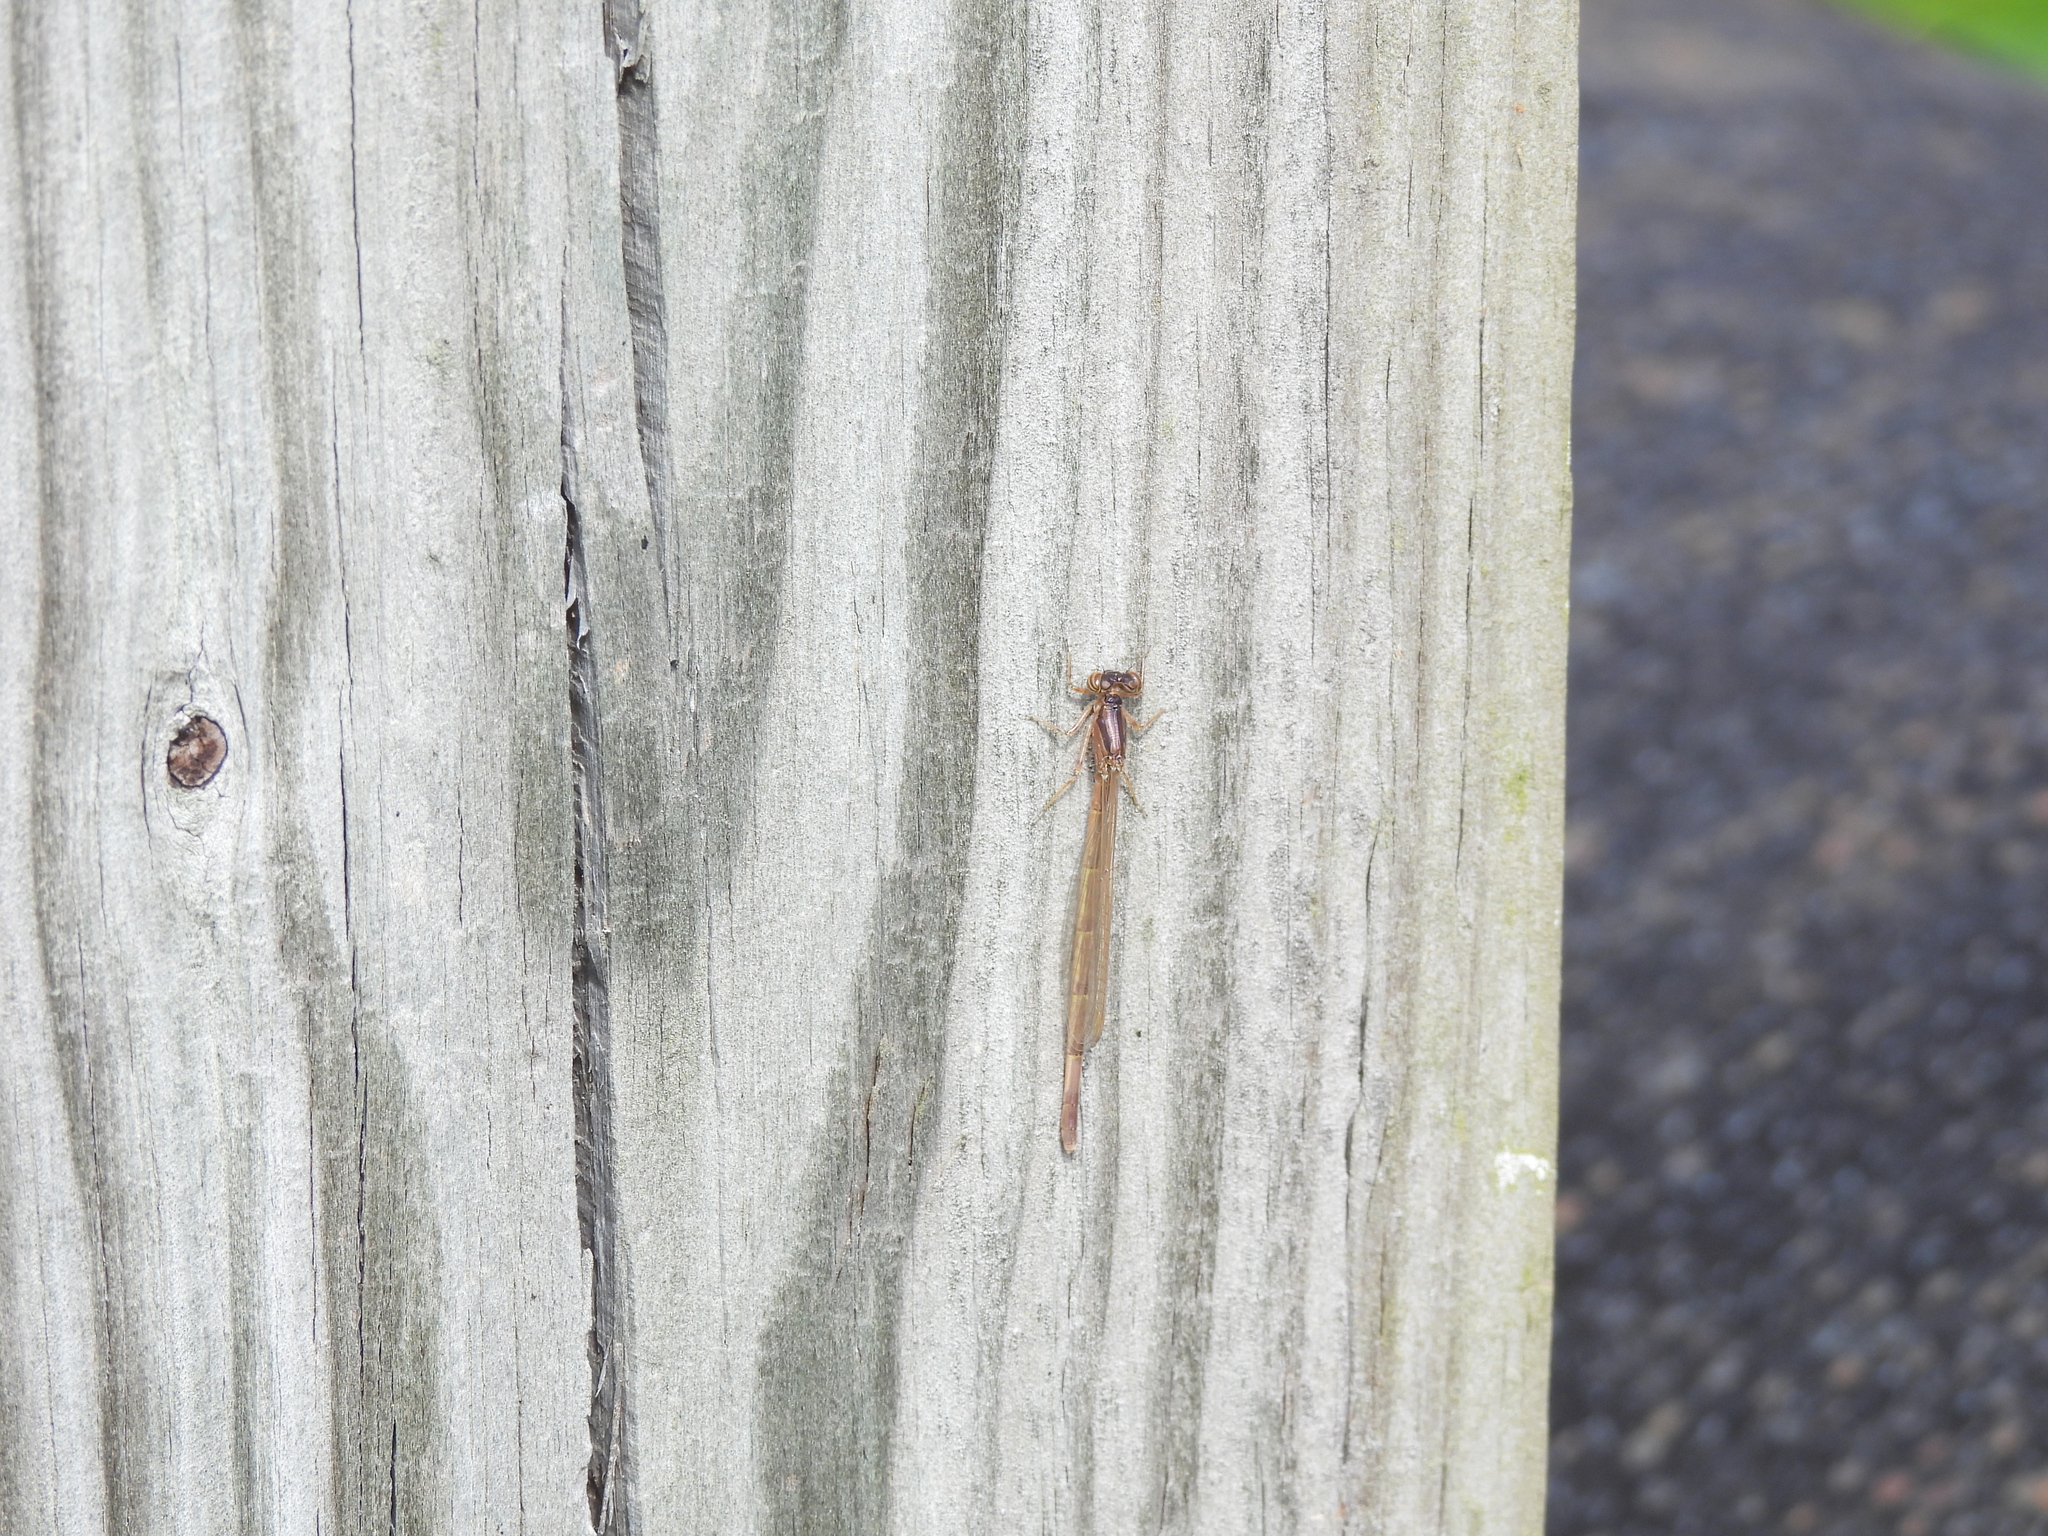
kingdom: Animalia
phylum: Arthropoda
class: Insecta
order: Odonata
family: Coenagrionidae
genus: Ischnura
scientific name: Ischnura posita
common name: Fragile forktail
